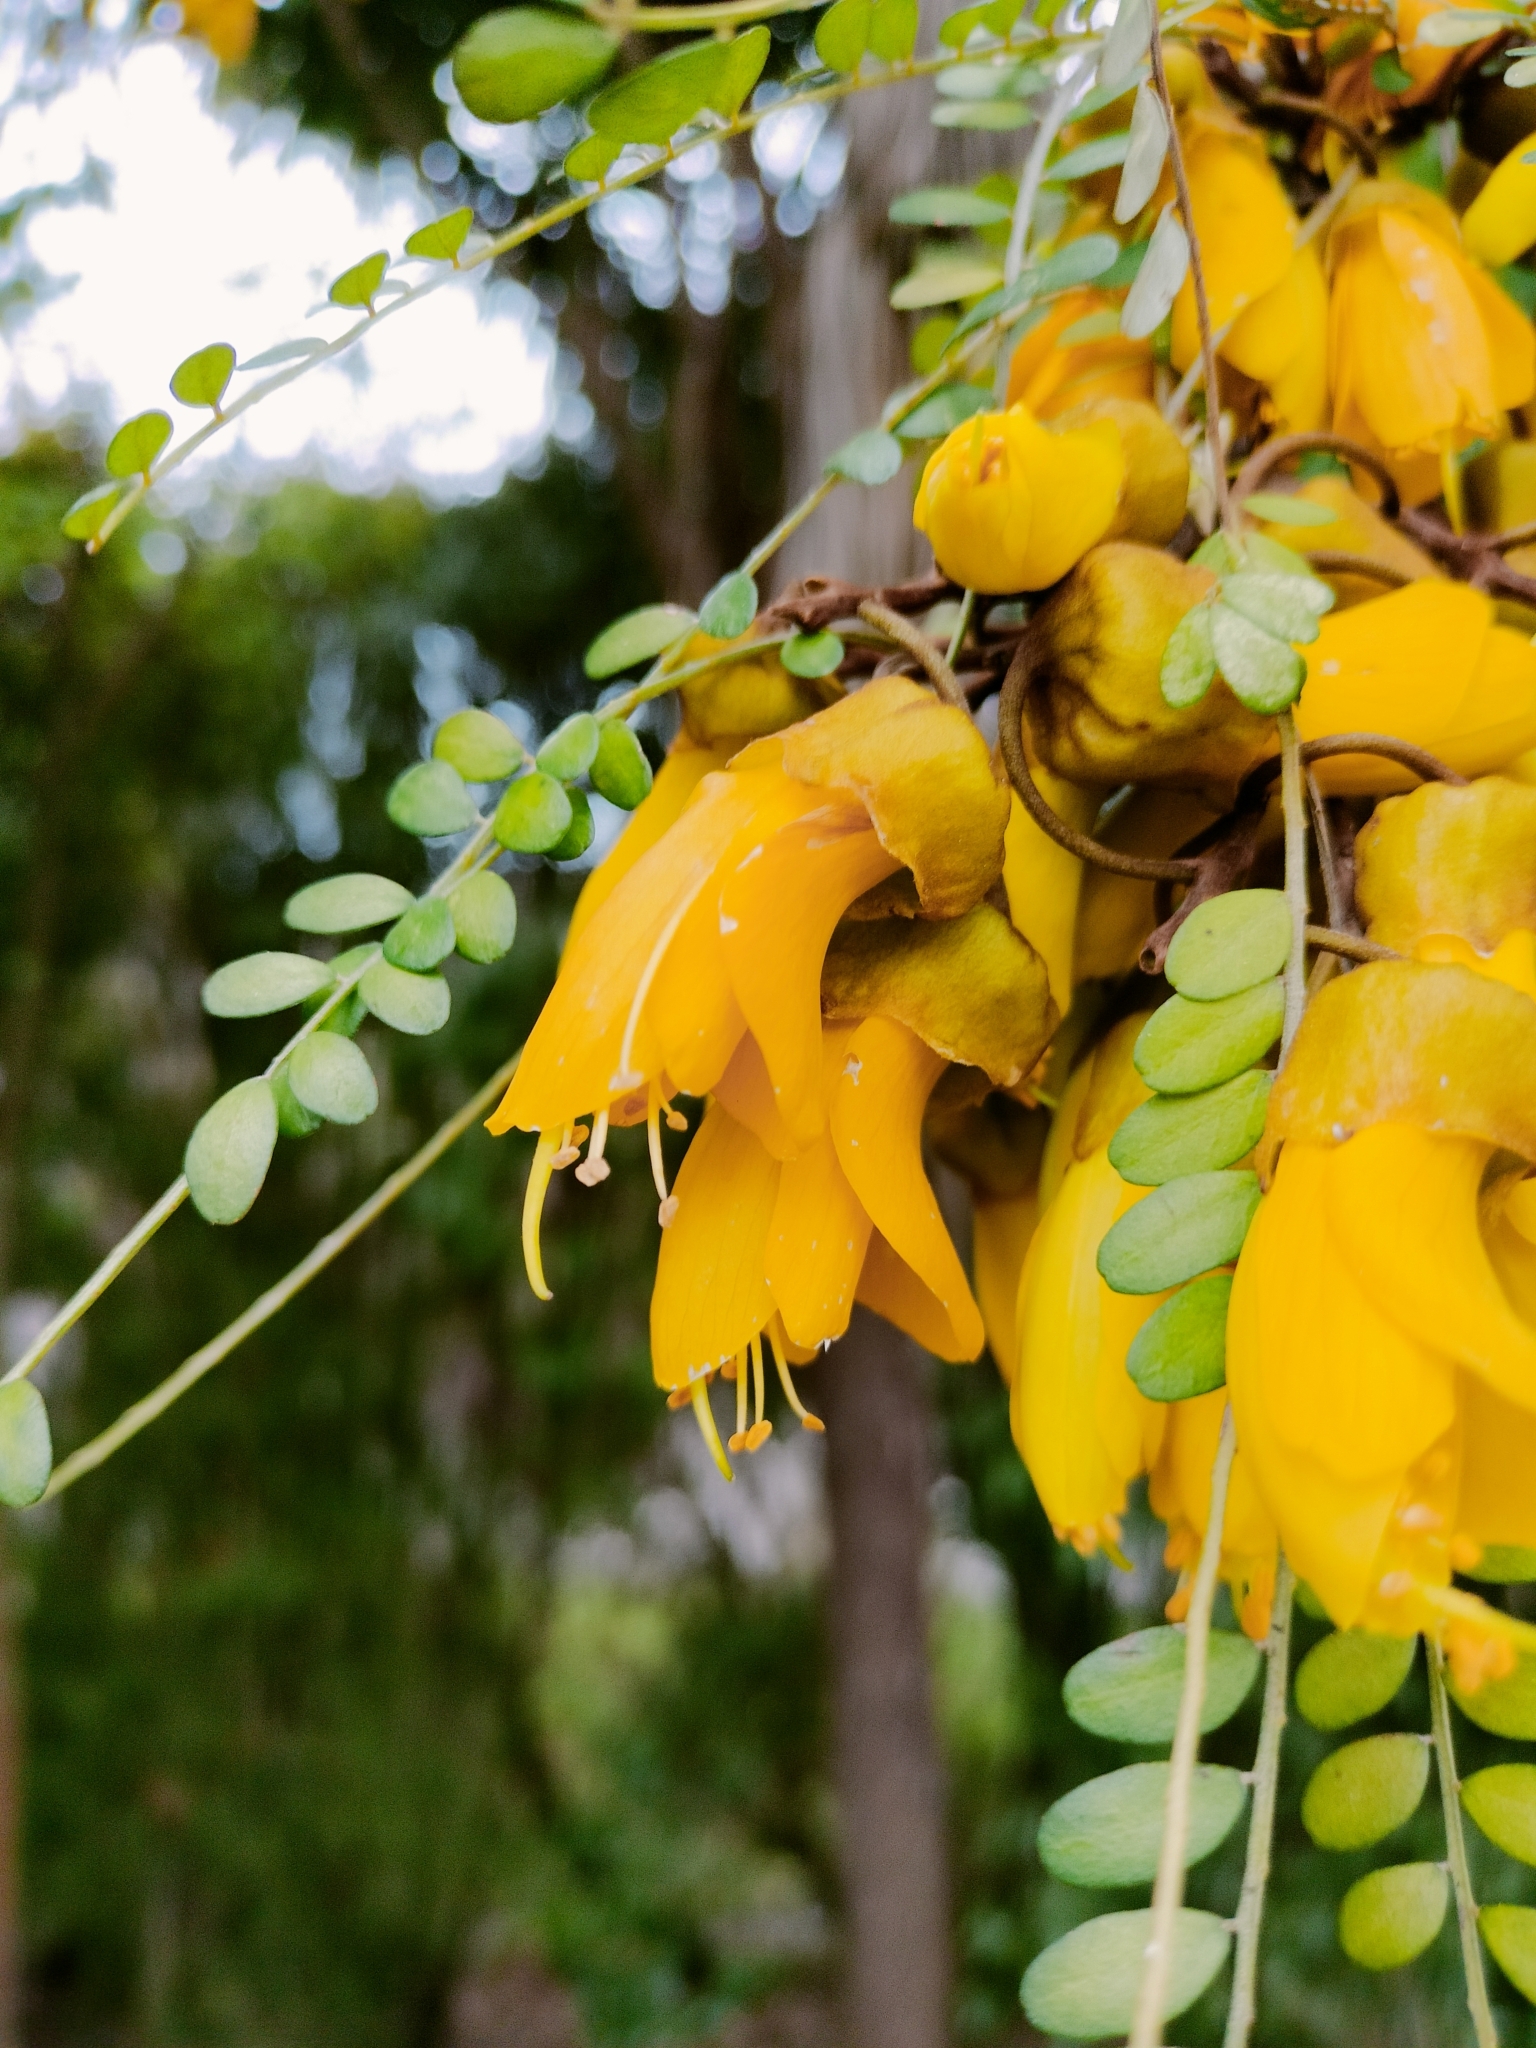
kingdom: Plantae
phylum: Tracheophyta
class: Magnoliopsida
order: Fabales
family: Fabaceae
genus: Sophora
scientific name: Sophora microphylla
